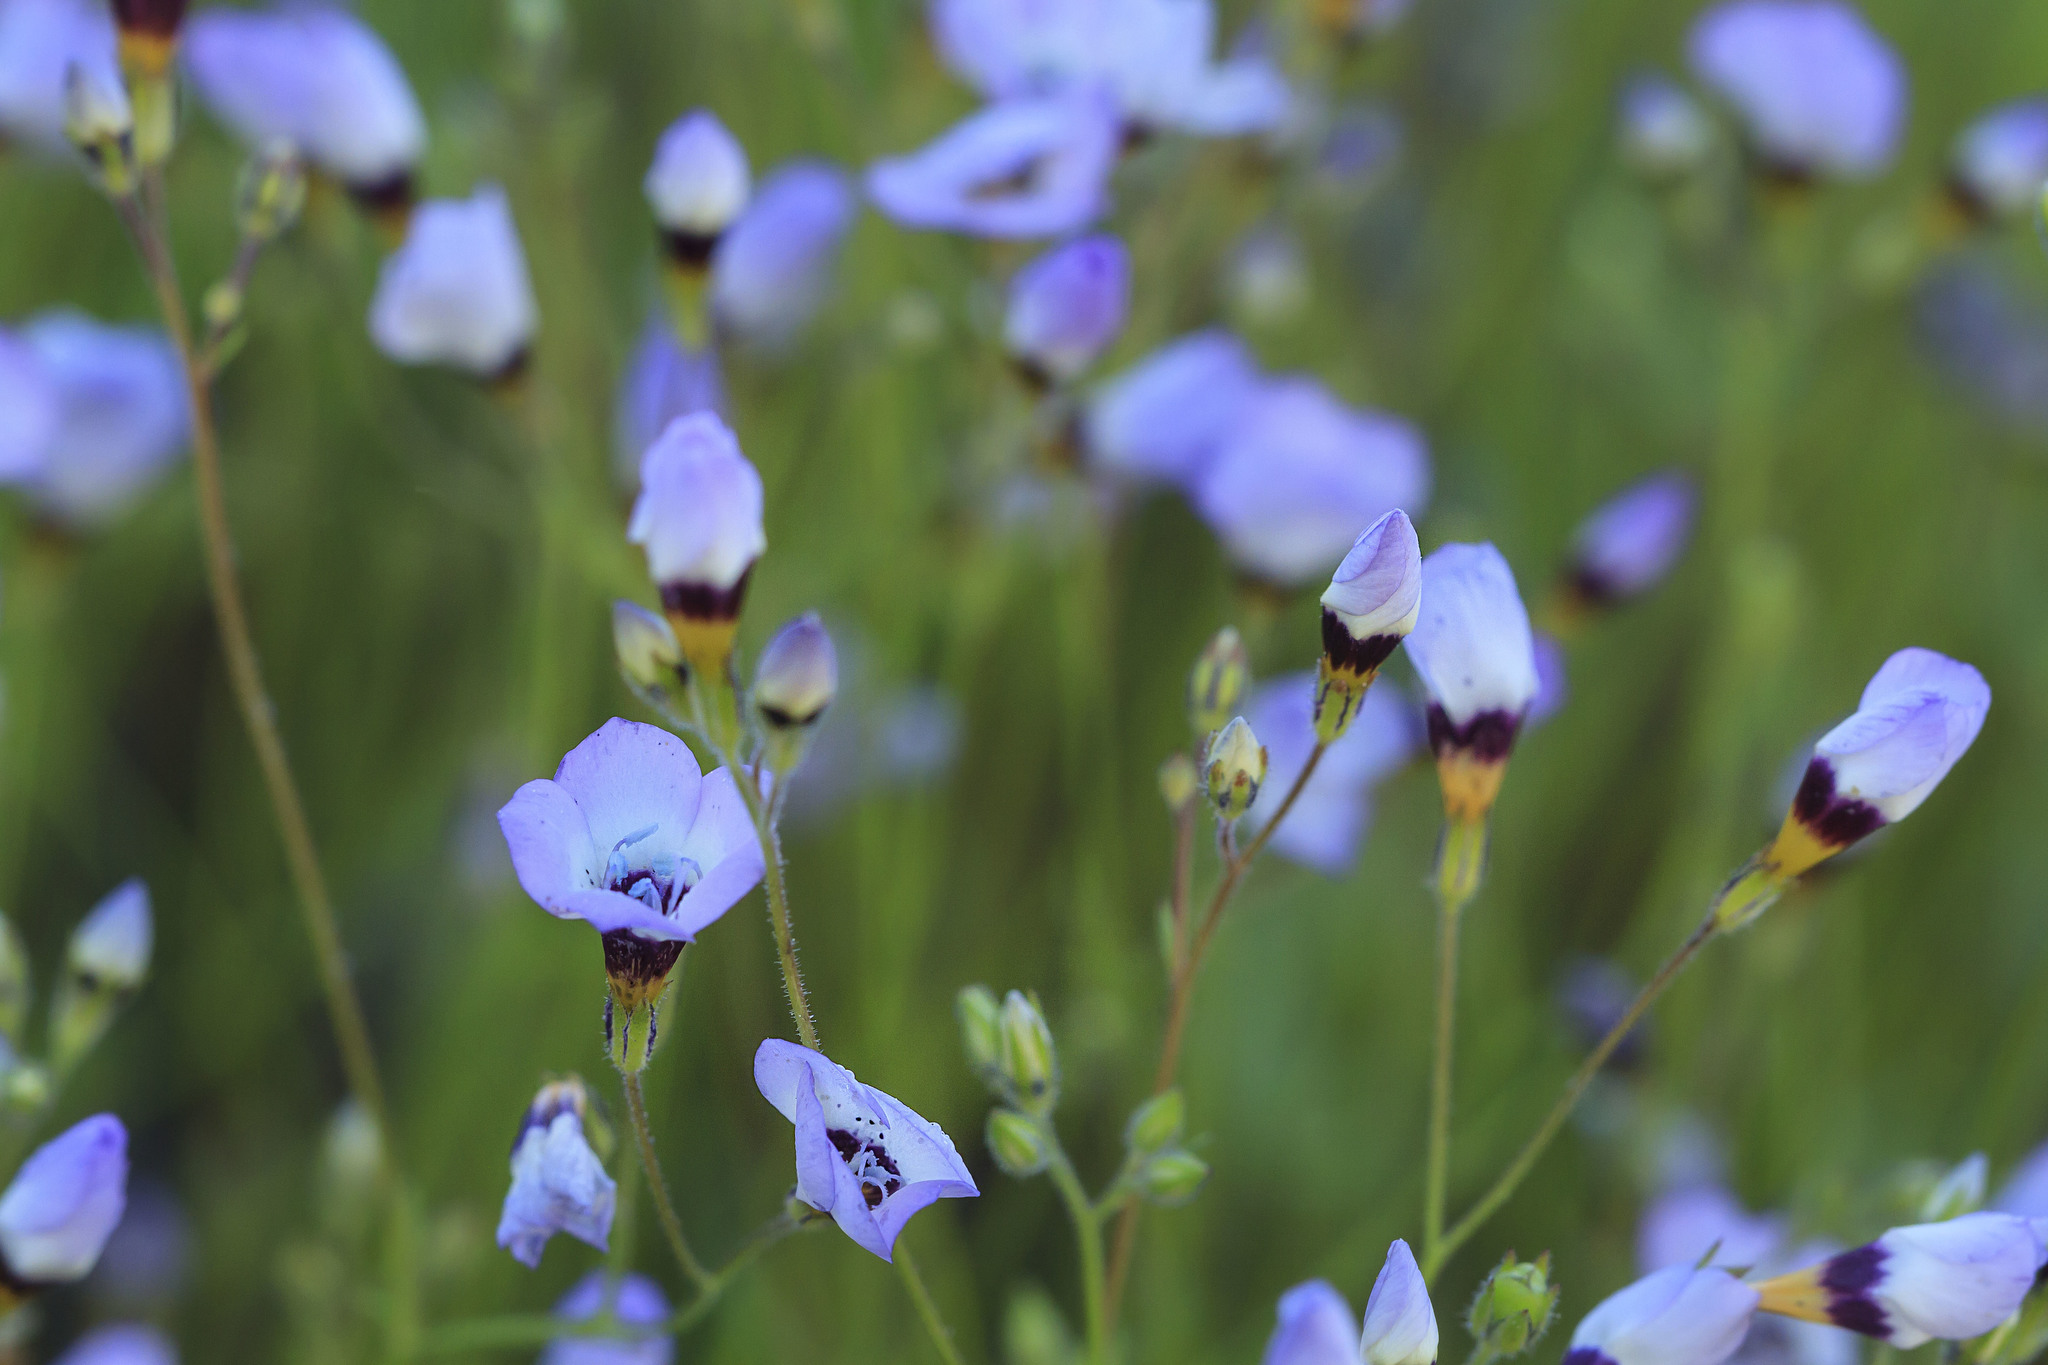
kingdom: Plantae
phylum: Tracheophyta
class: Magnoliopsida
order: Ericales
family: Polemoniaceae
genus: Gilia
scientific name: Gilia tricolor
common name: Bird's-eyes
